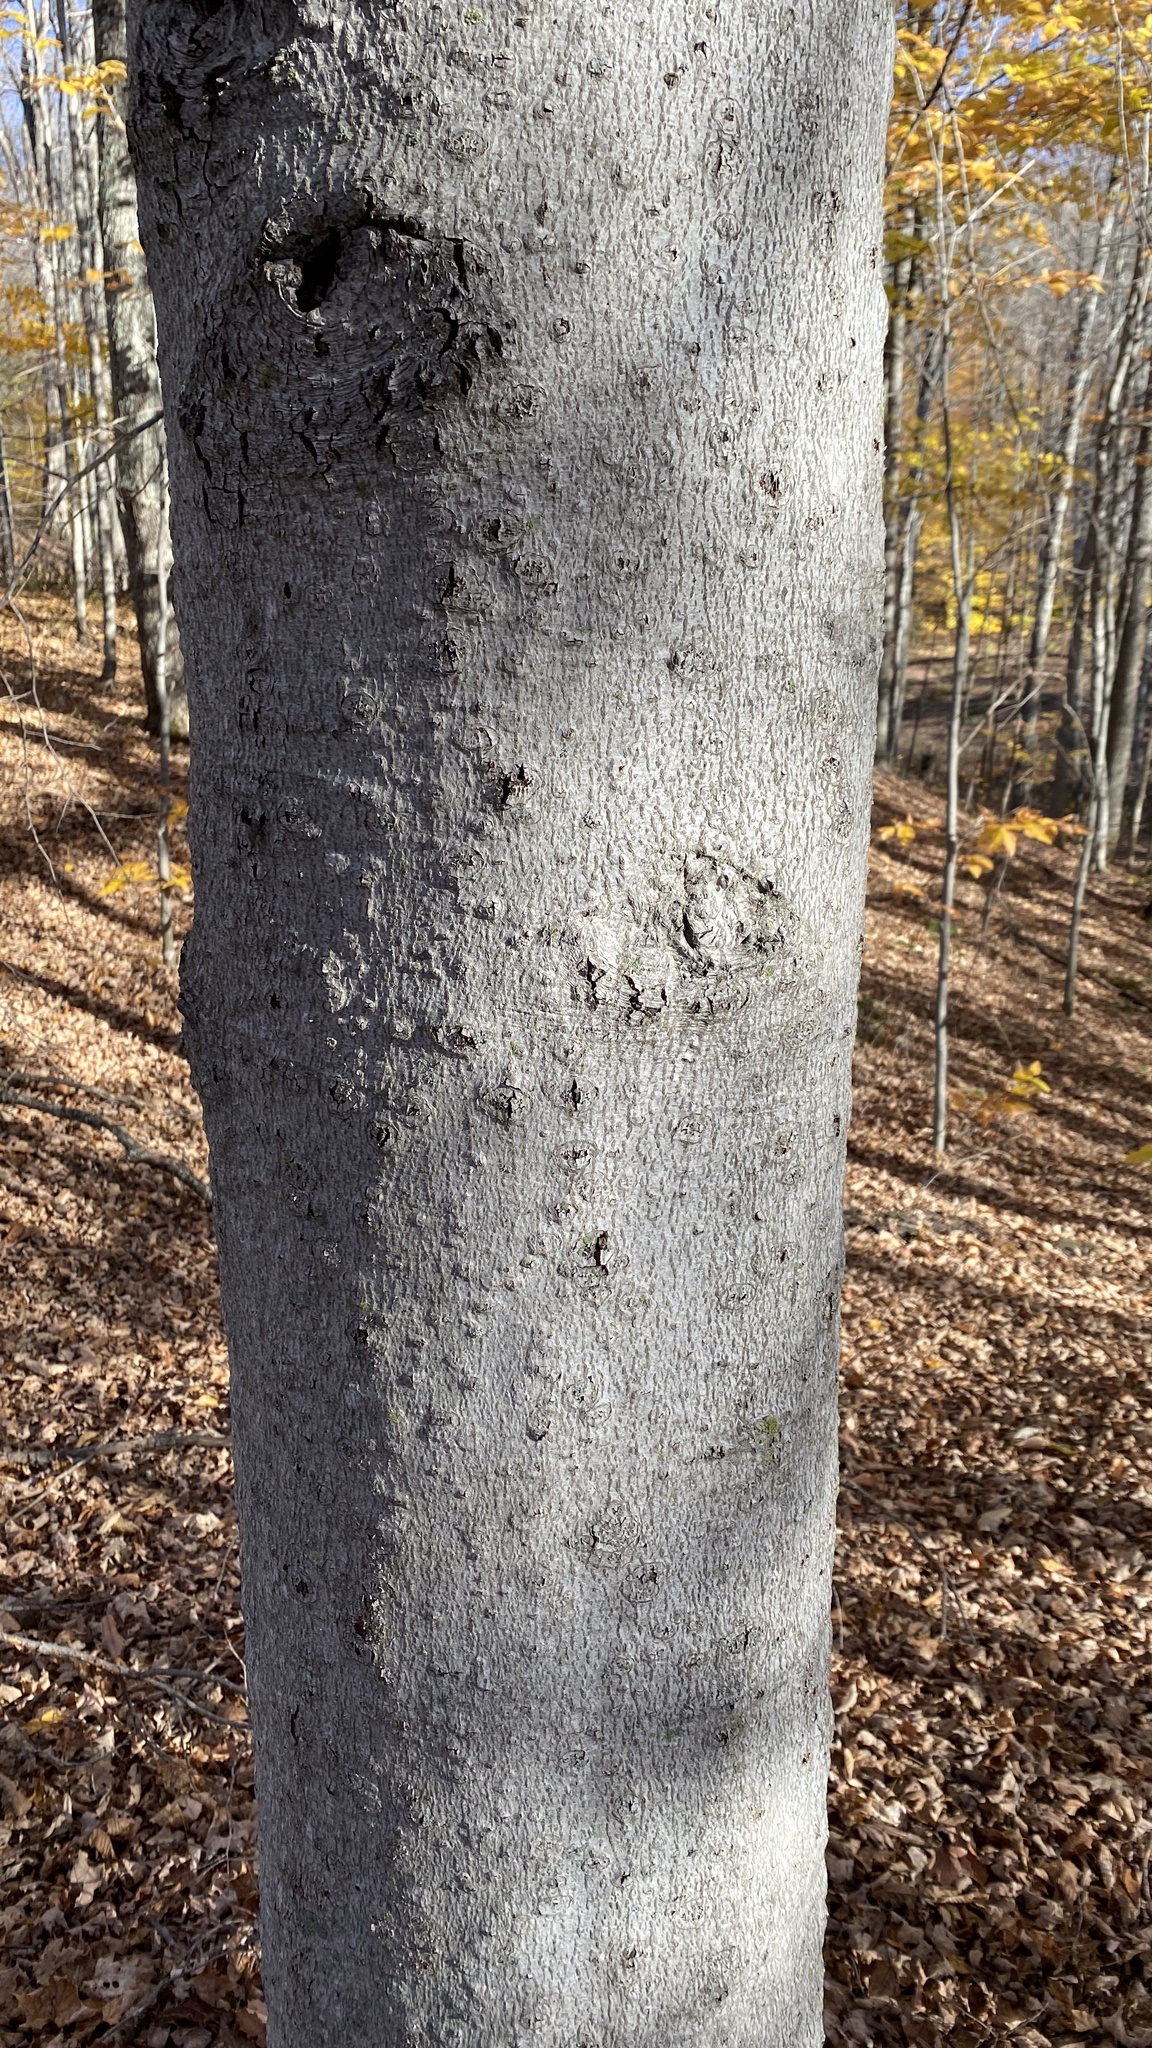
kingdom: Plantae
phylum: Tracheophyta
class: Magnoliopsida
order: Fagales
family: Fagaceae
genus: Fagus
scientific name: Fagus grandifolia
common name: American beech
